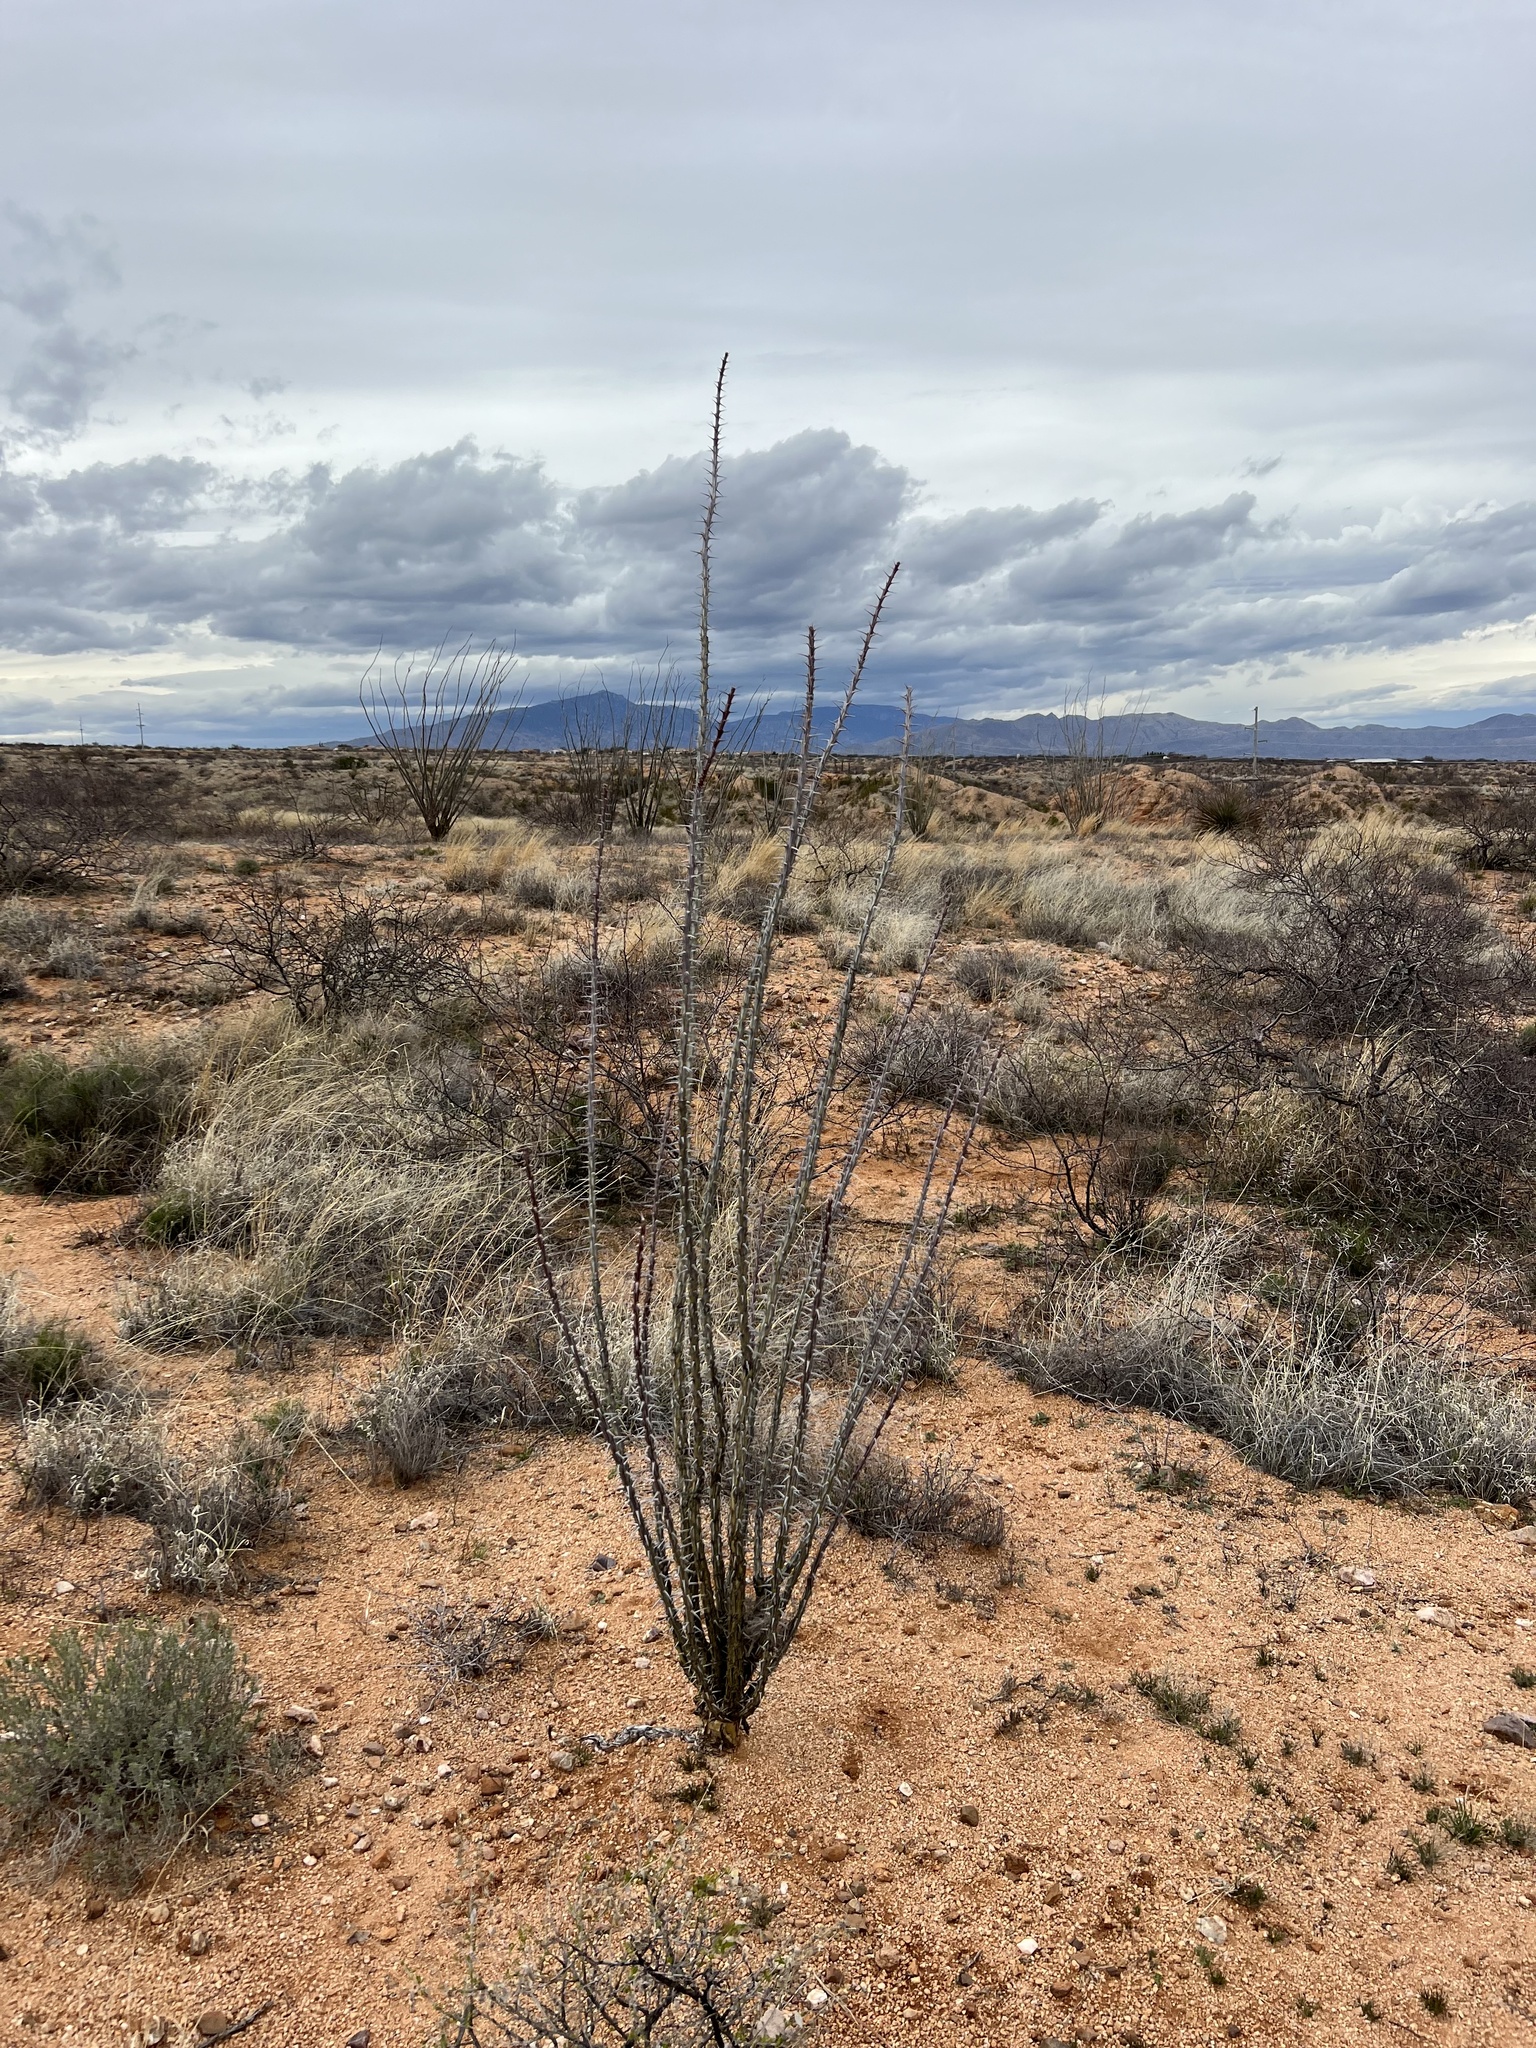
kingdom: Plantae
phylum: Tracheophyta
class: Magnoliopsida
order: Ericales
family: Fouquieriaceae
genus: Fouquieria
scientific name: Fouquieria splendens
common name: Vine-cactus
